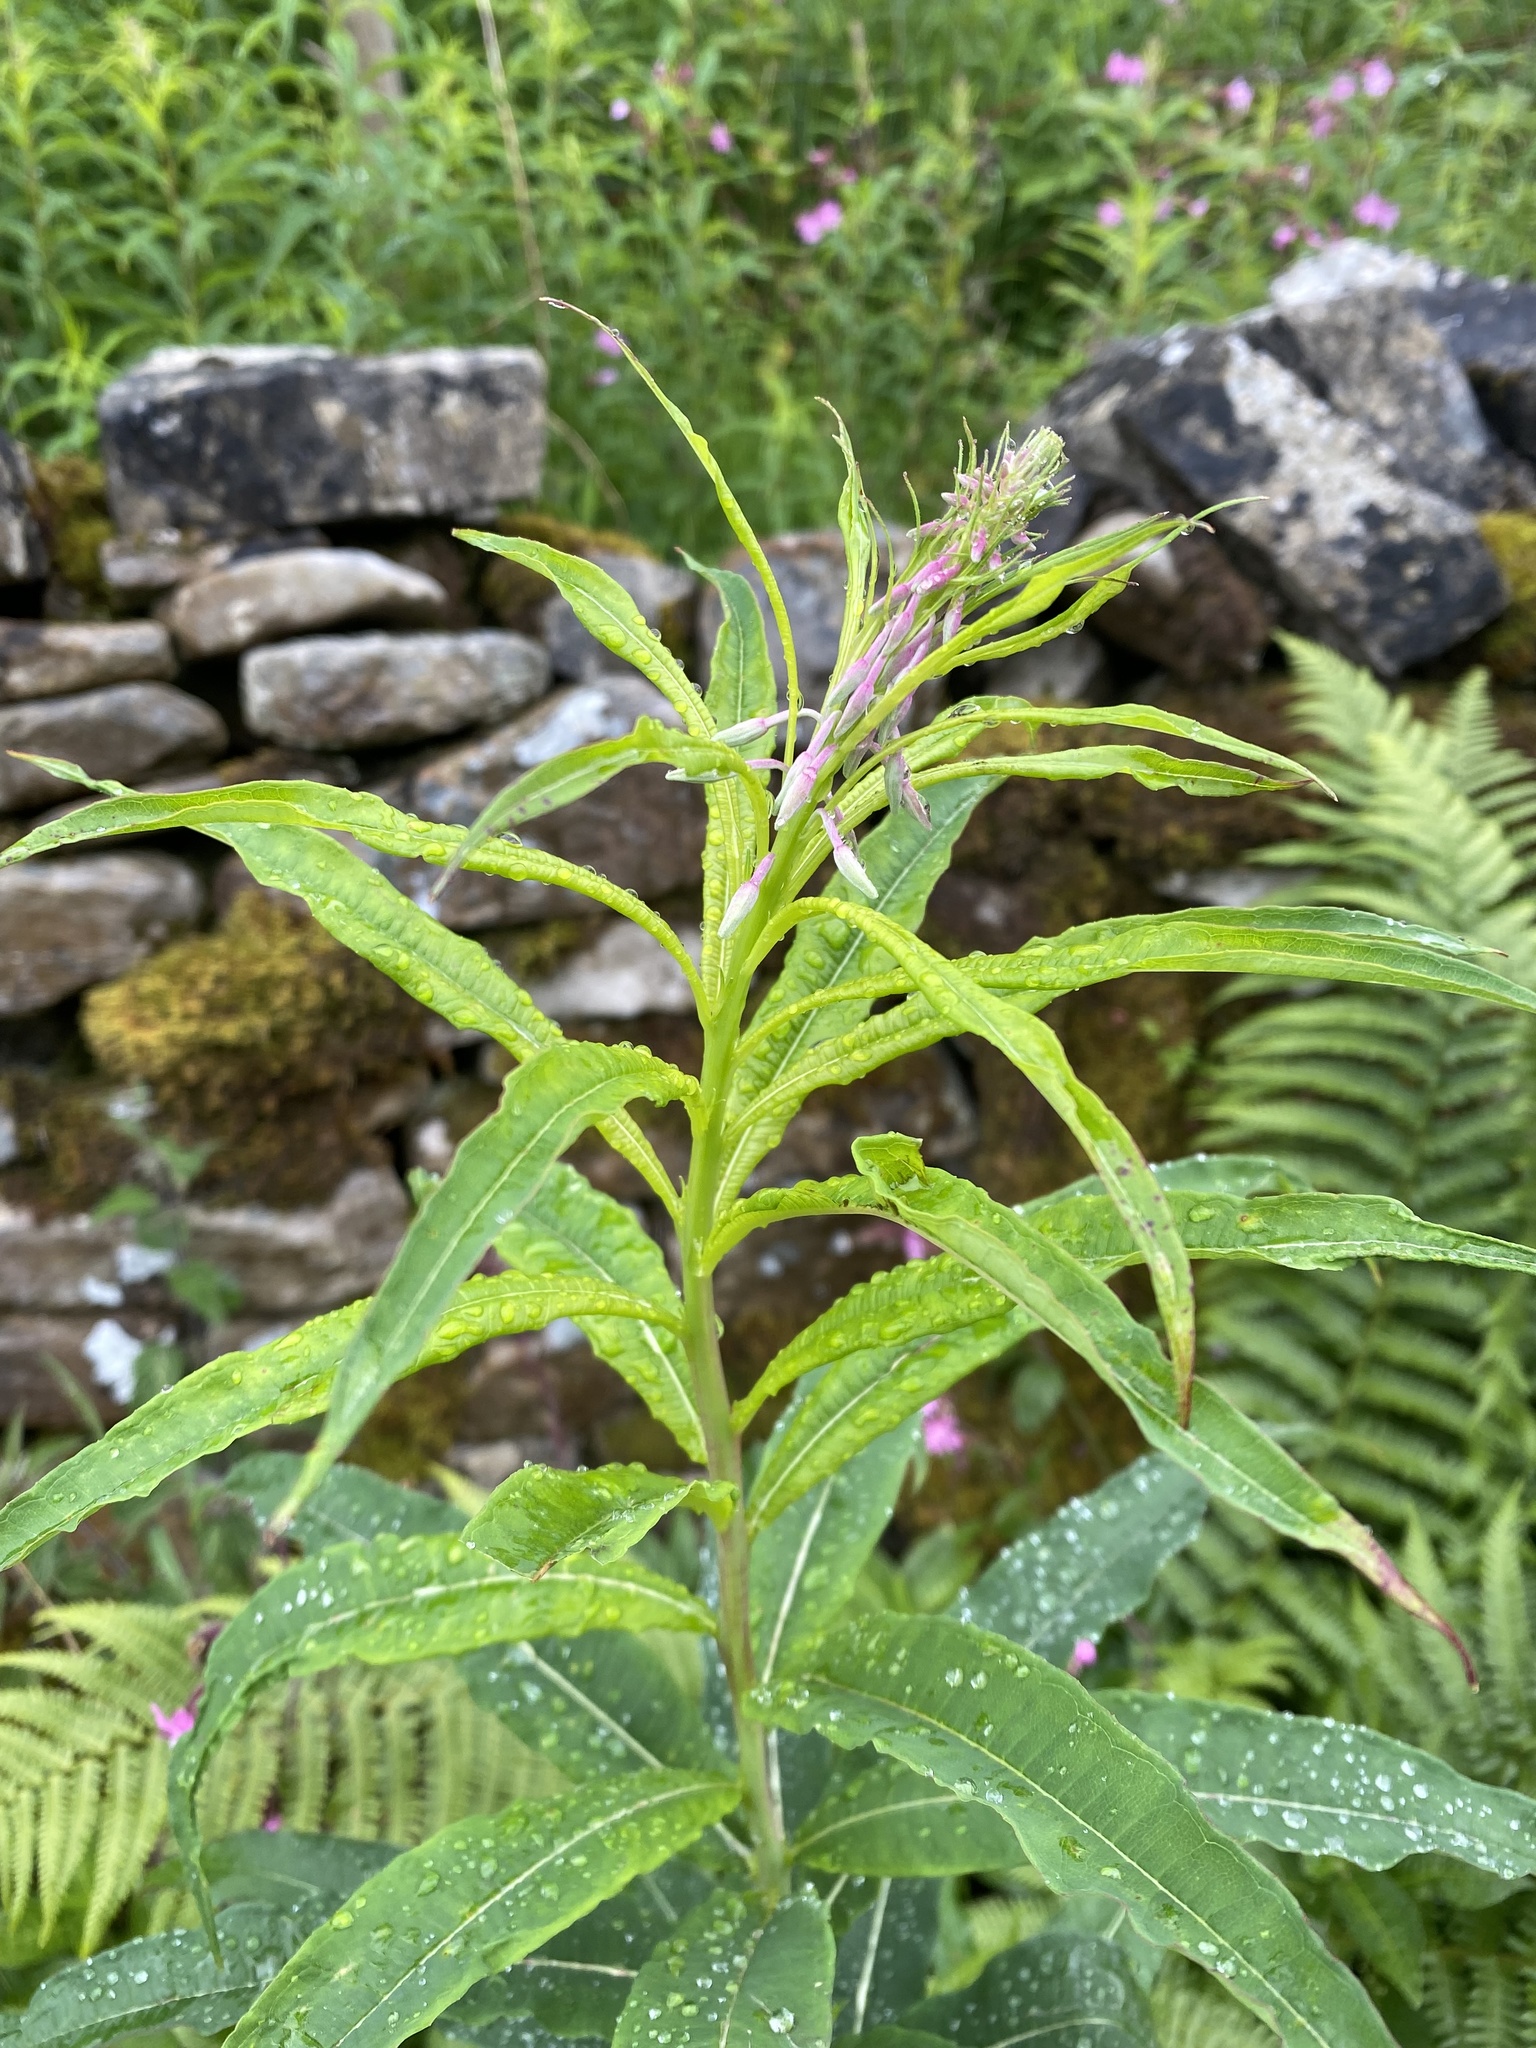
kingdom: Plantae
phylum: Tracheophyta
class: Magnoliopsida
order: Myrtales
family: Onagraceae
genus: Chamaenerion
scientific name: Chamaenerion angustifolium
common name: Fireweed
